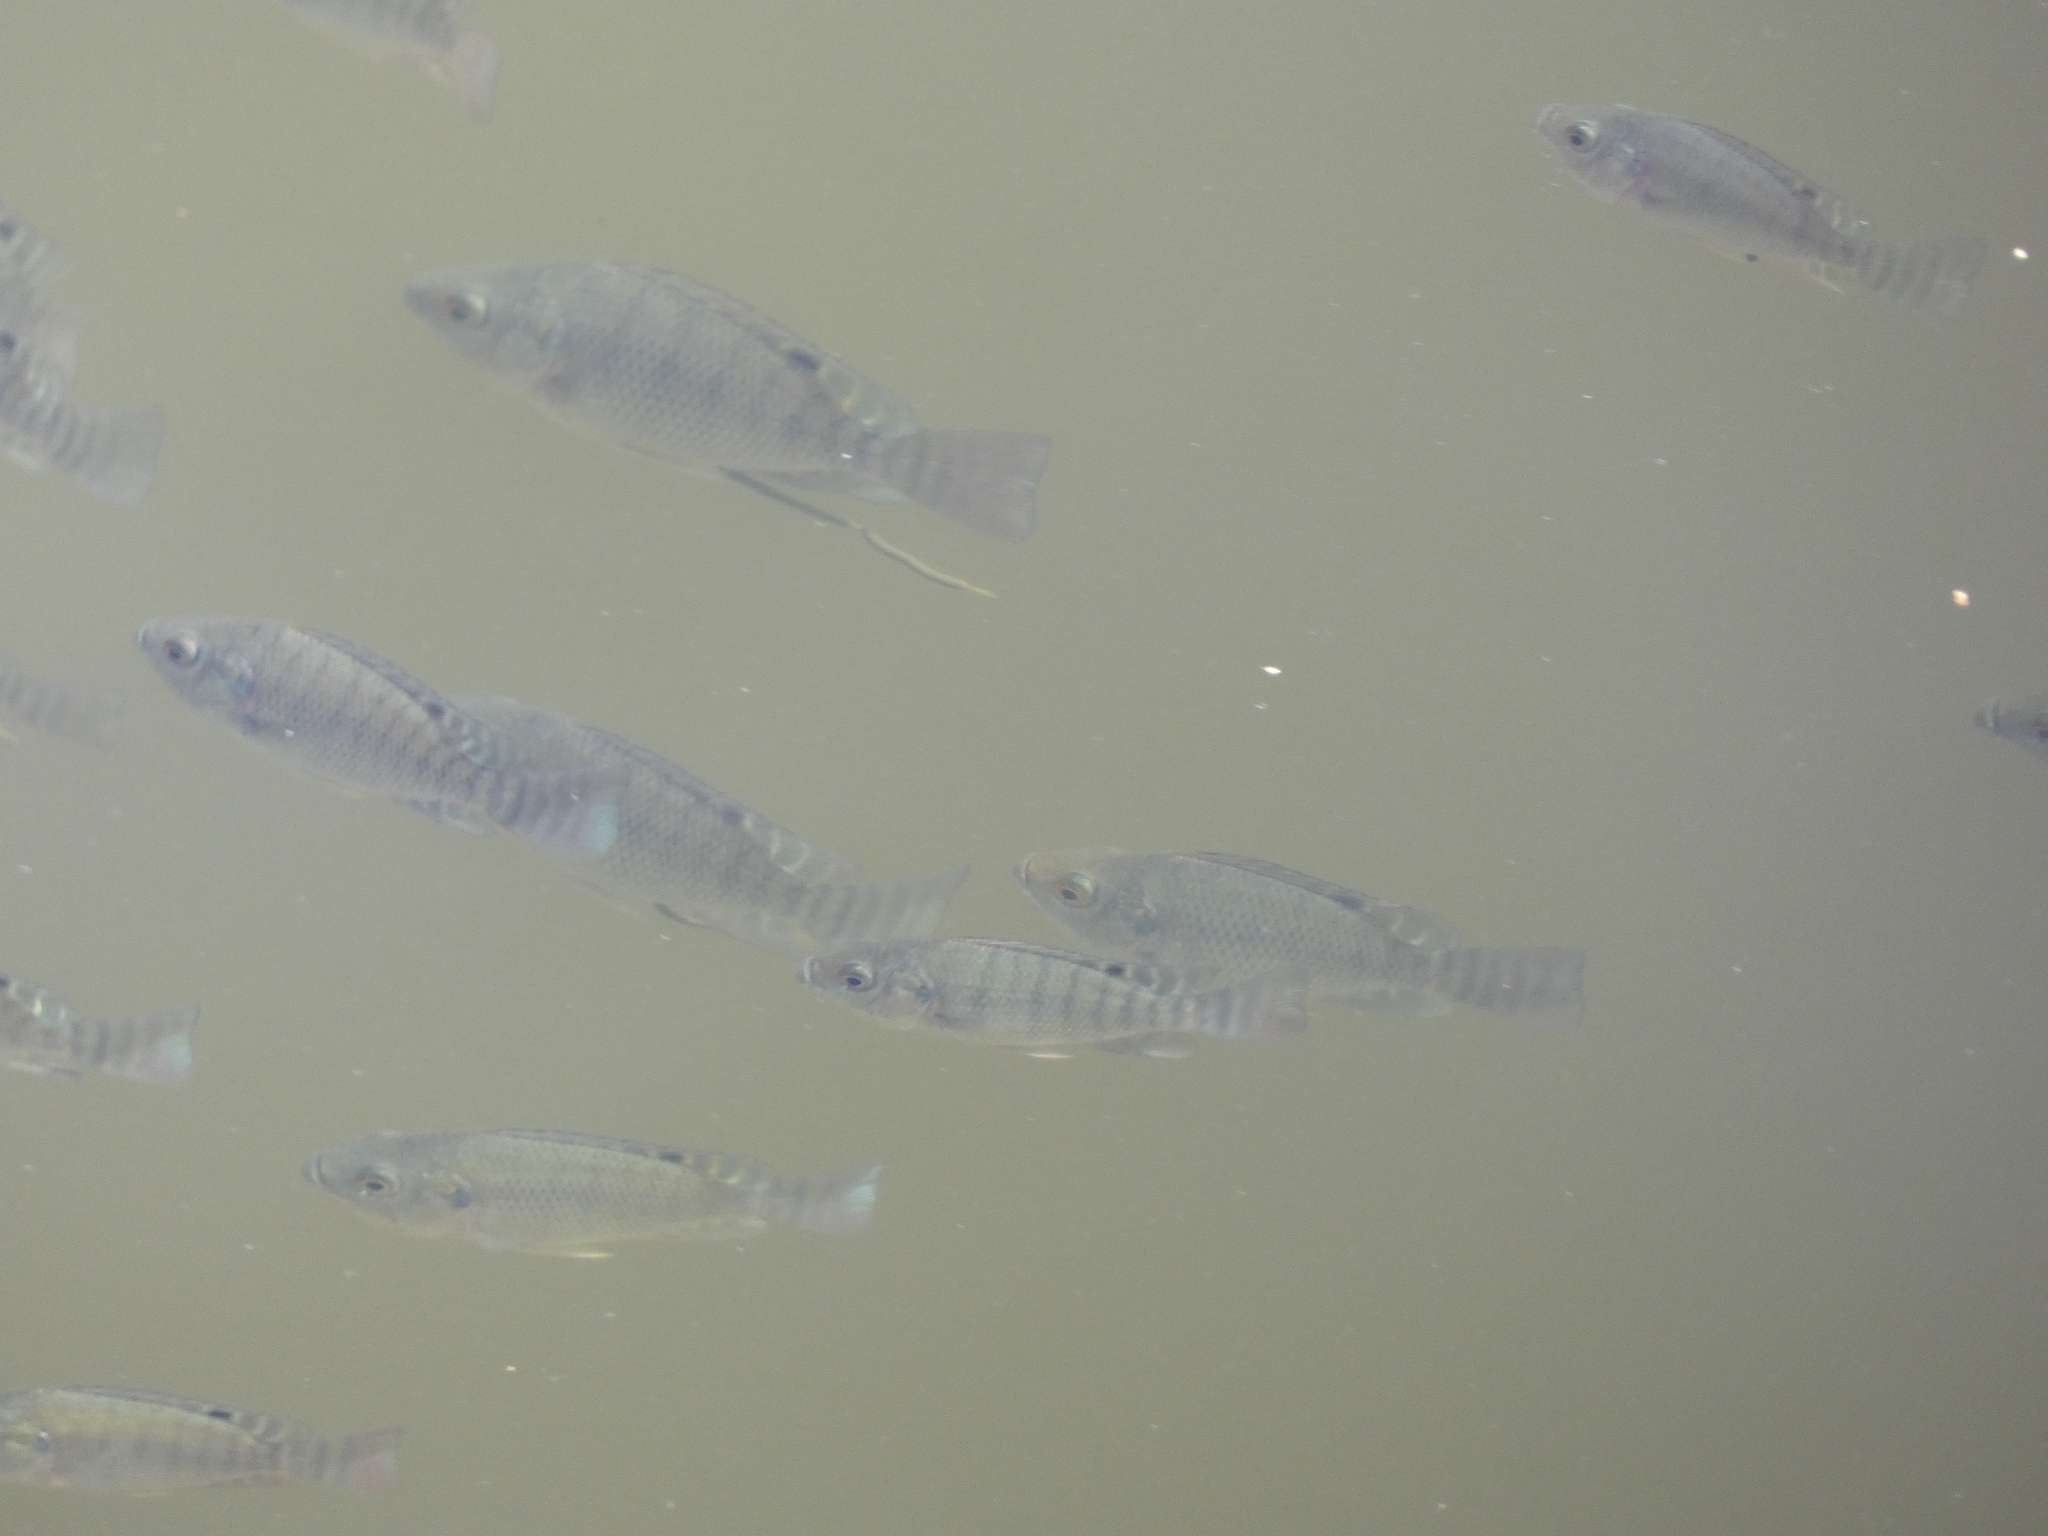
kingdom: Animalia
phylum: Chordata
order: Perciformes
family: Cichlidae
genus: Oreochromis
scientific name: Oreochromis niloticus
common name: Nile tilapia
